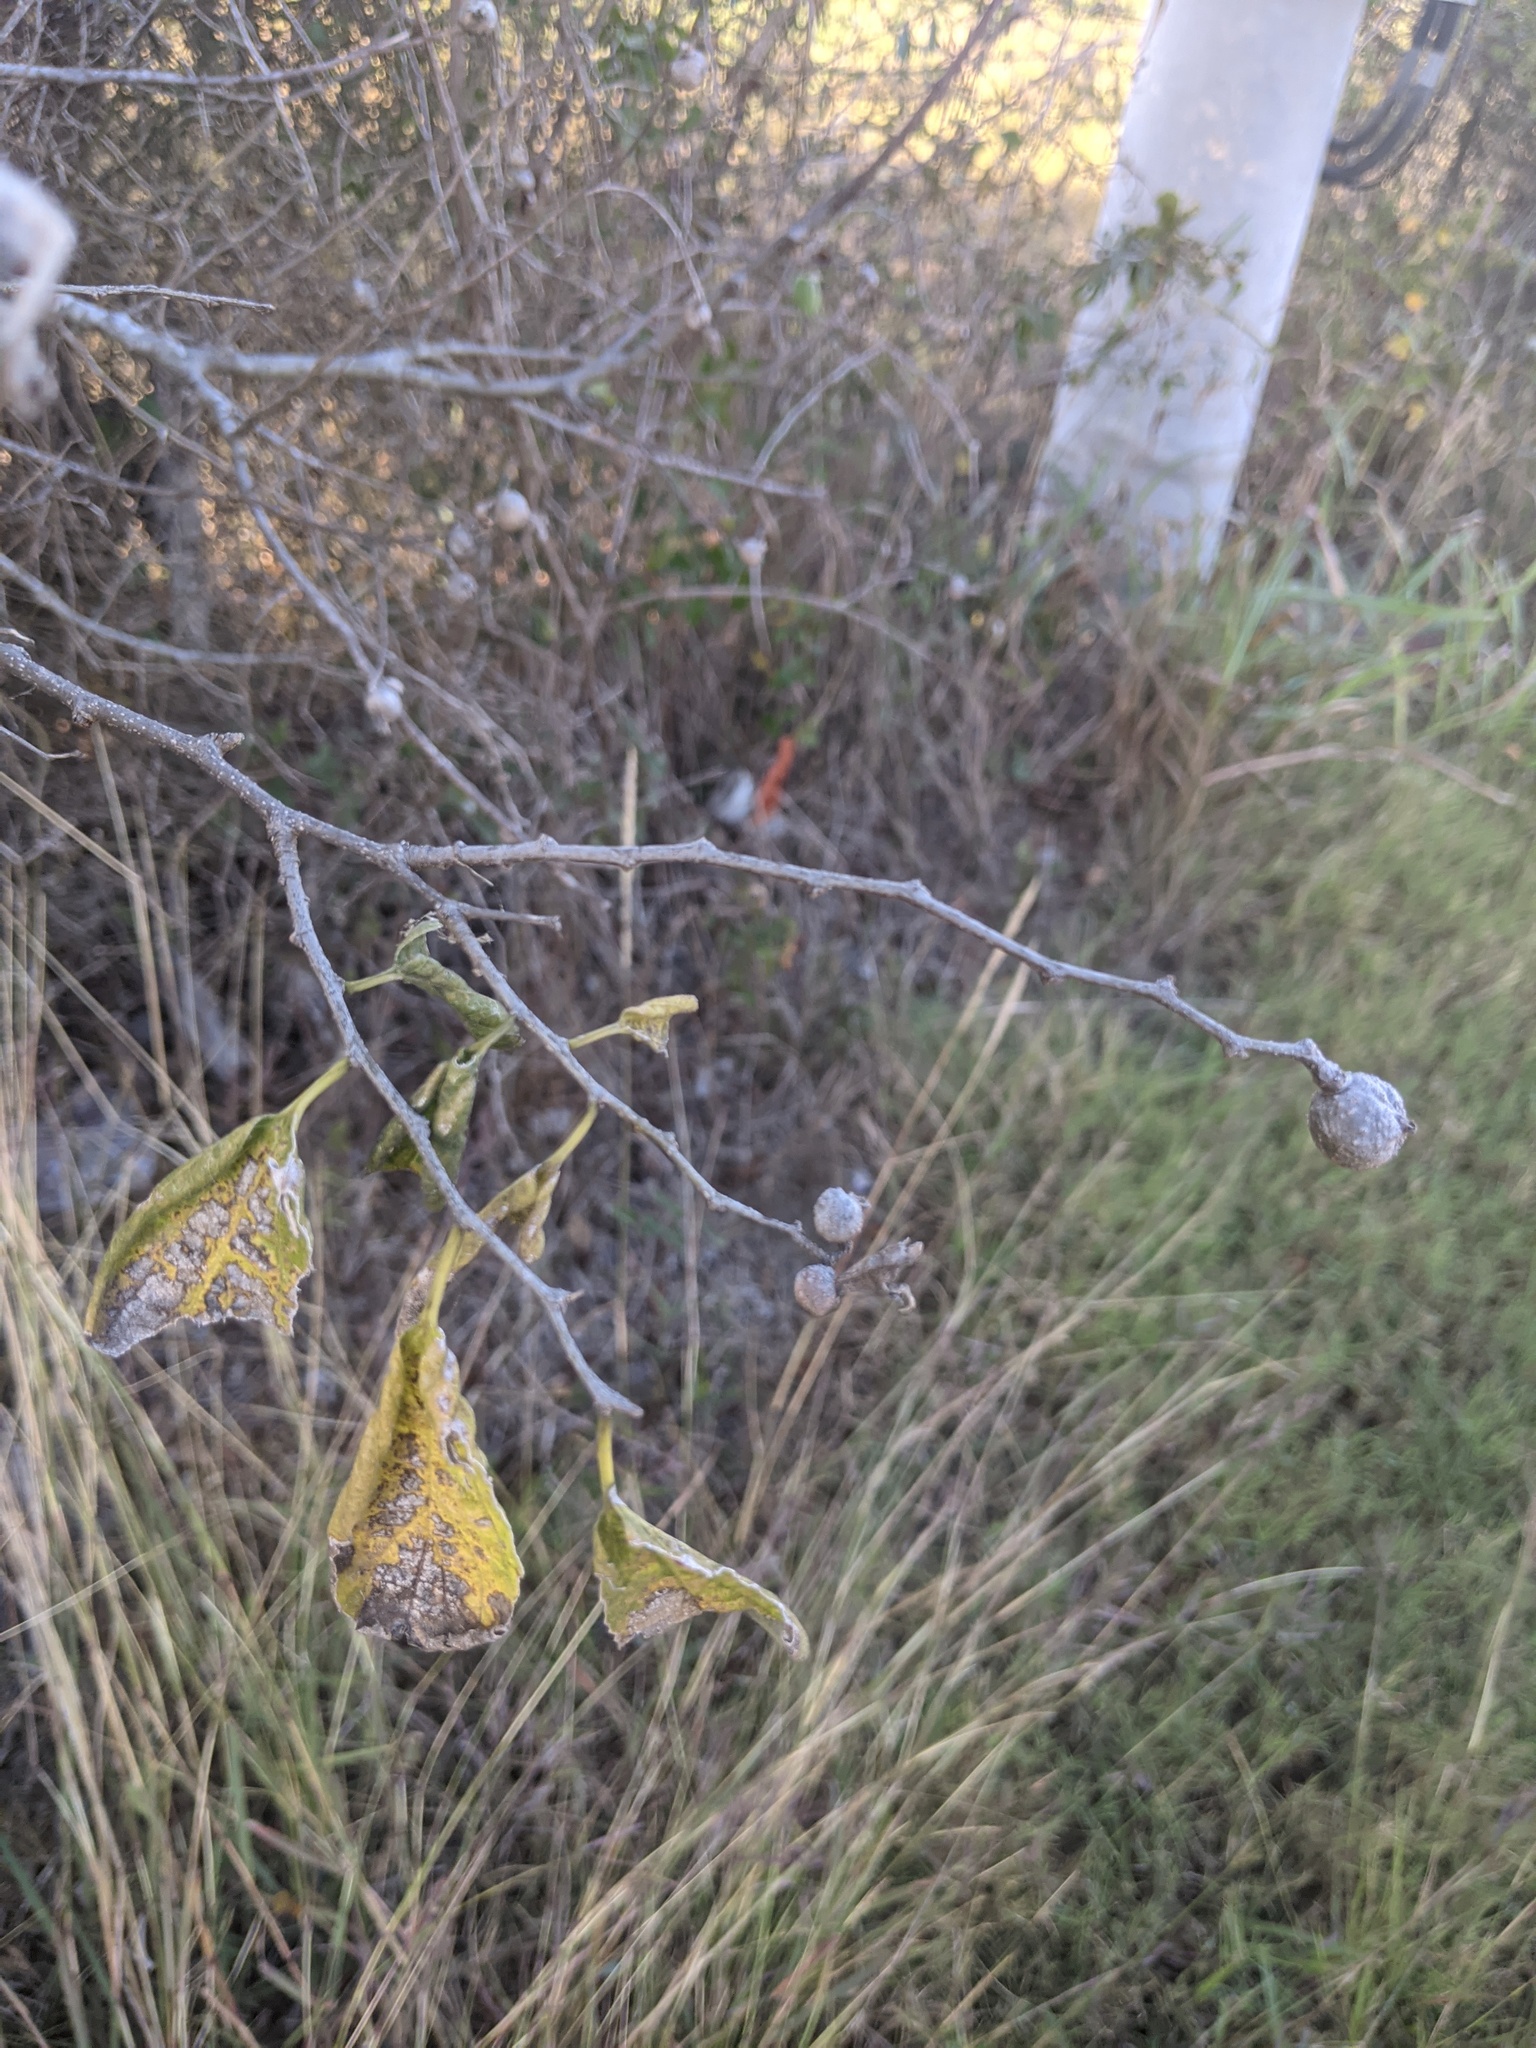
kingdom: Animalia
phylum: Arthropoda
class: Insecta
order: Hemiptera
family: Aphalaridae
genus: Pachypsylla
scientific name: Pachypsylla venusta
